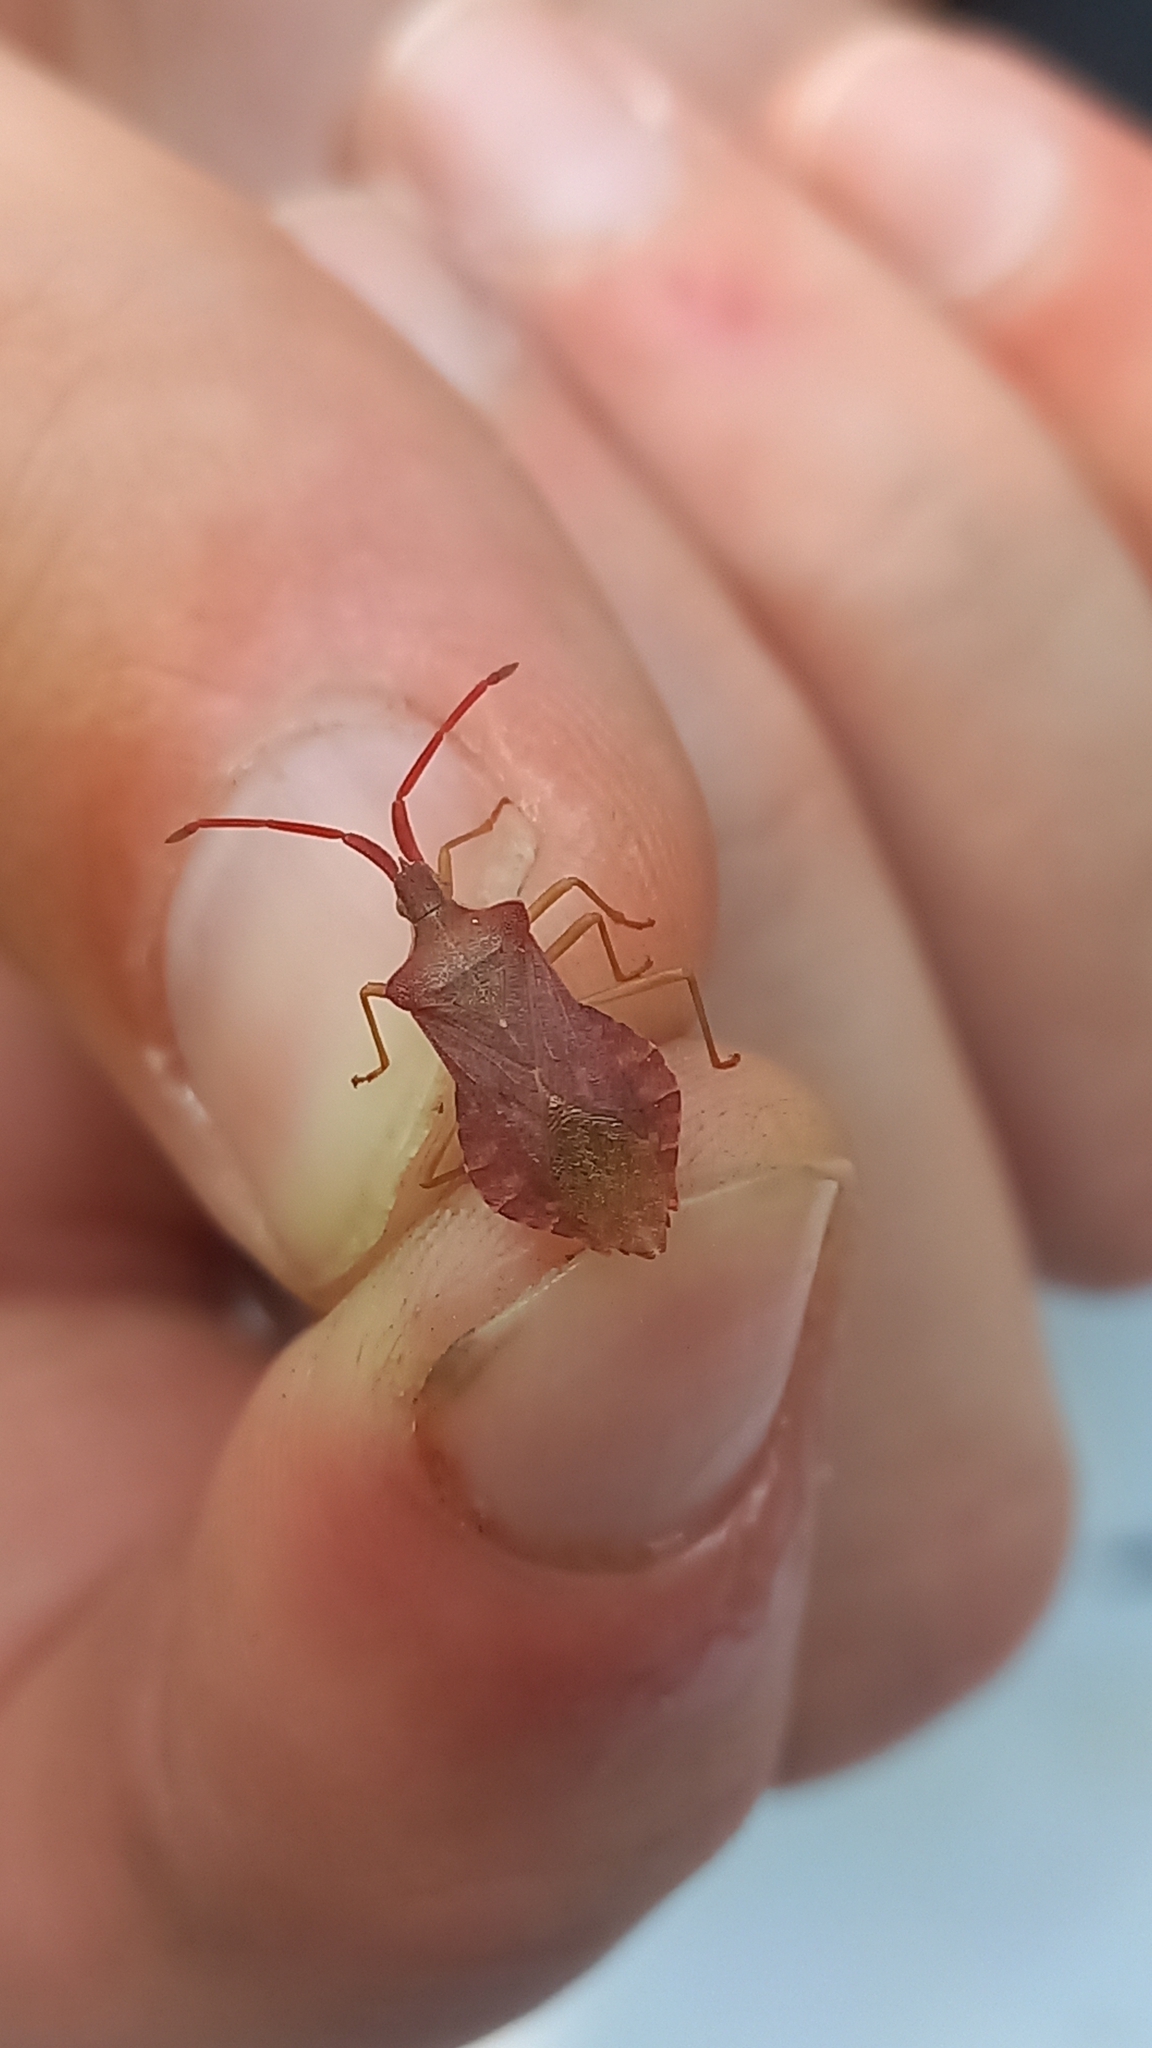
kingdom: Animalia
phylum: Arthropoda
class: Insecta
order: Hemiptera
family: Coreidae
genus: Haploprocta
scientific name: Haploprocta sulcicornis
